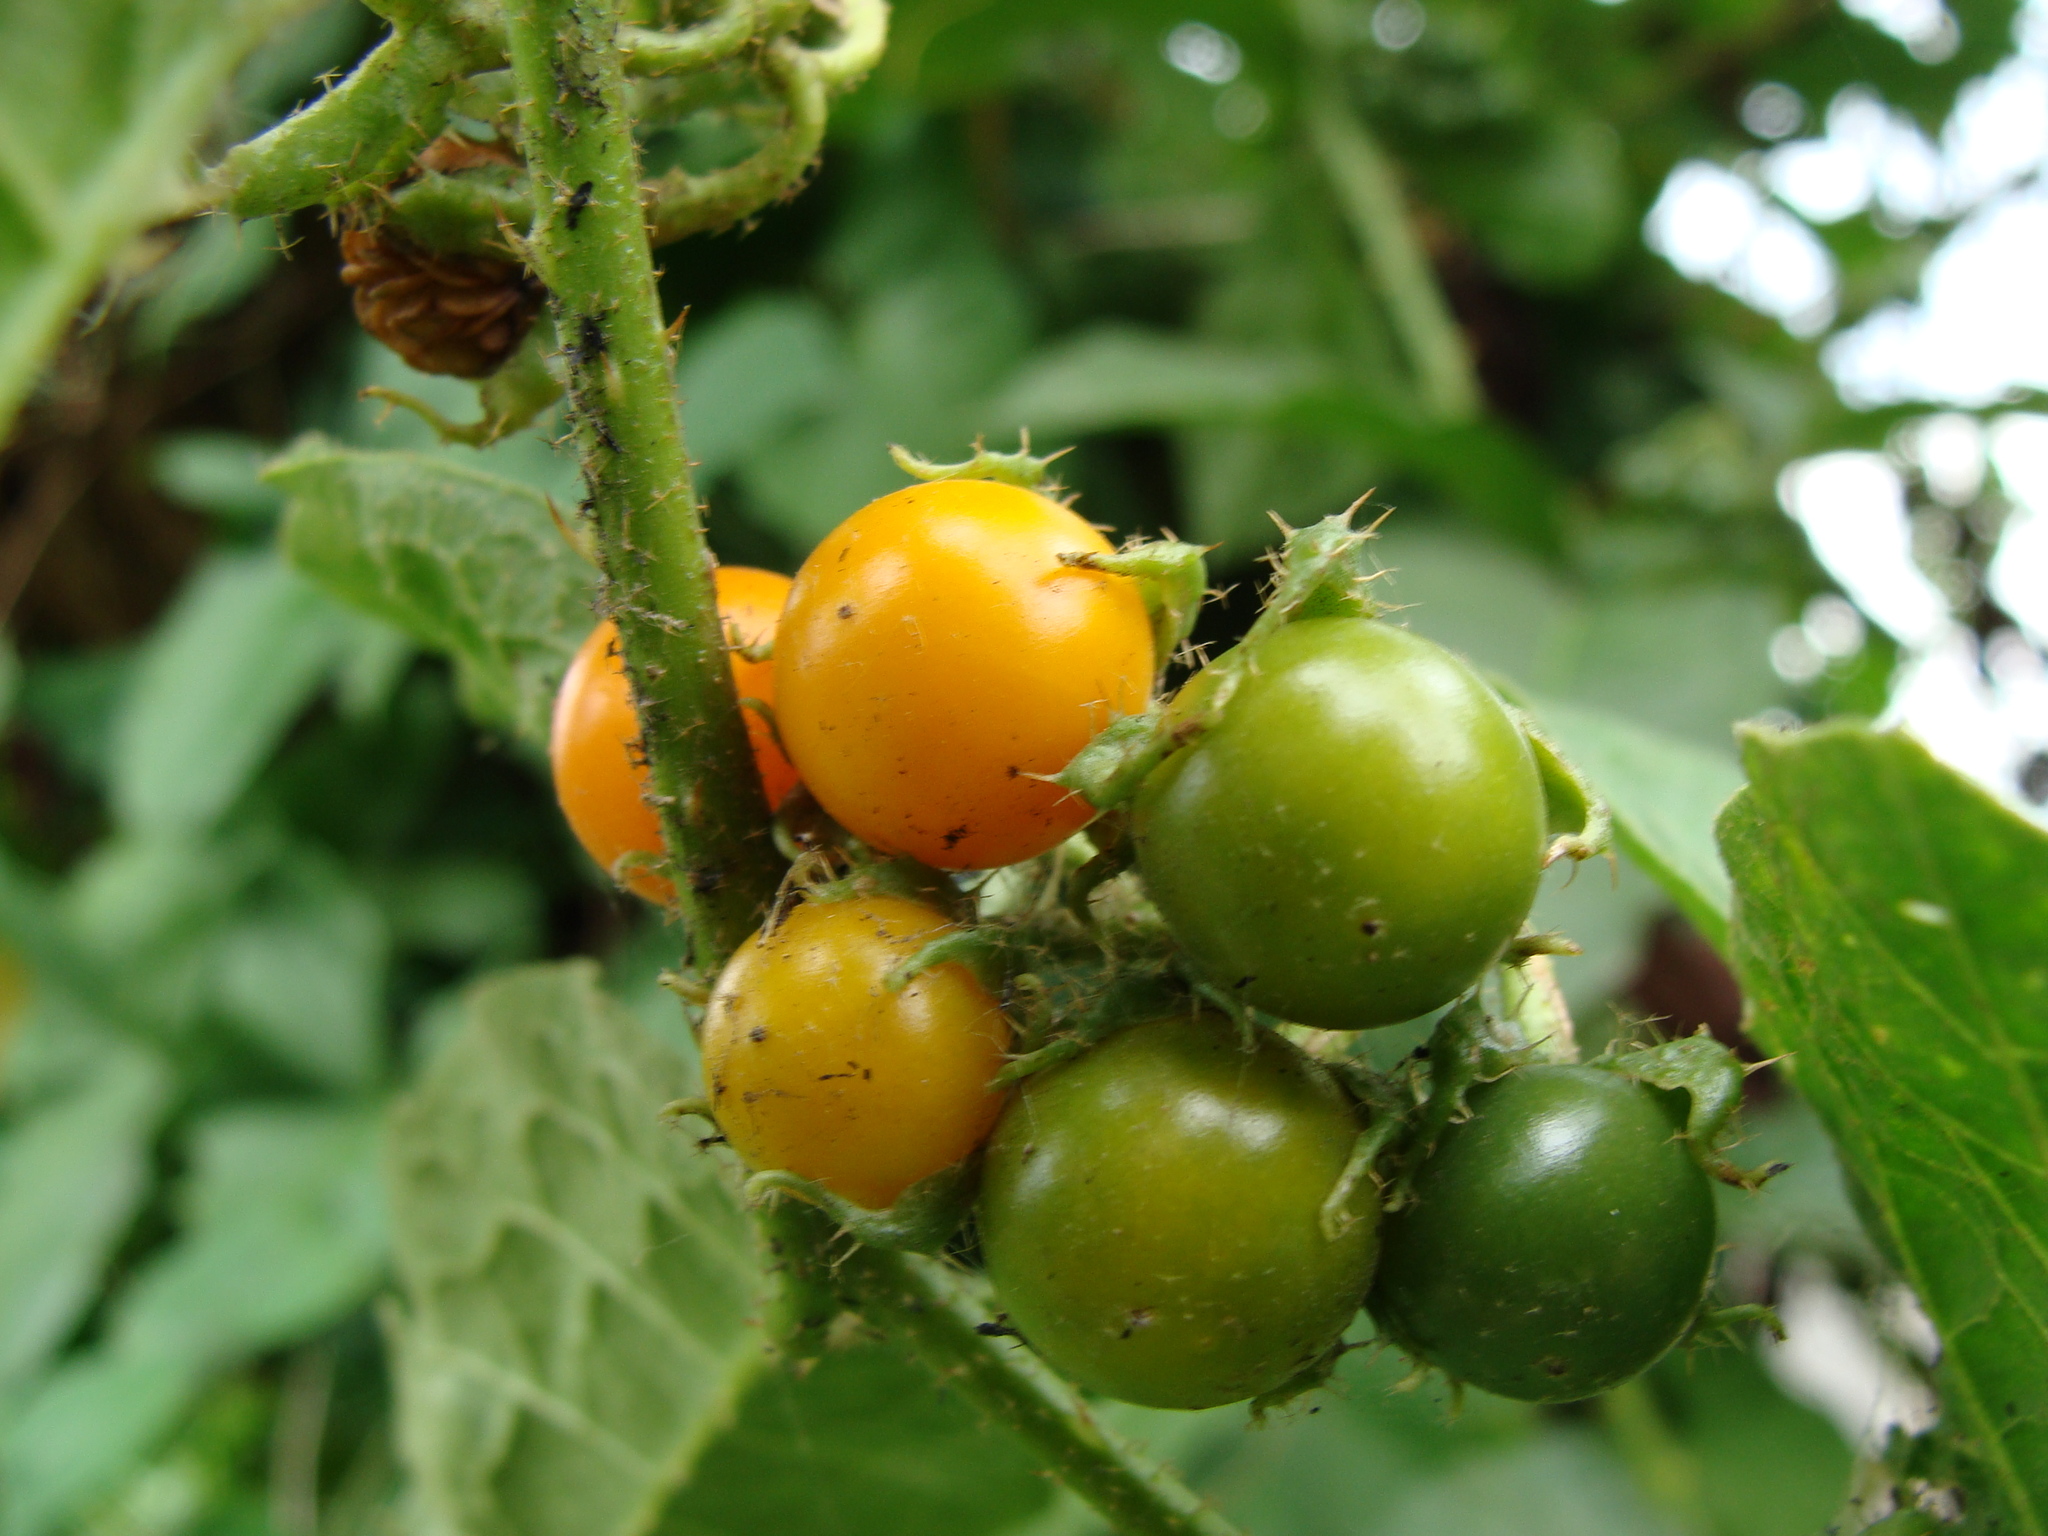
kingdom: Plantae
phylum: Tracheophyta
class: Magnoliopsida
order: Solanales
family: Solanaceae
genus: Solanum
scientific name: Solanum volubile
